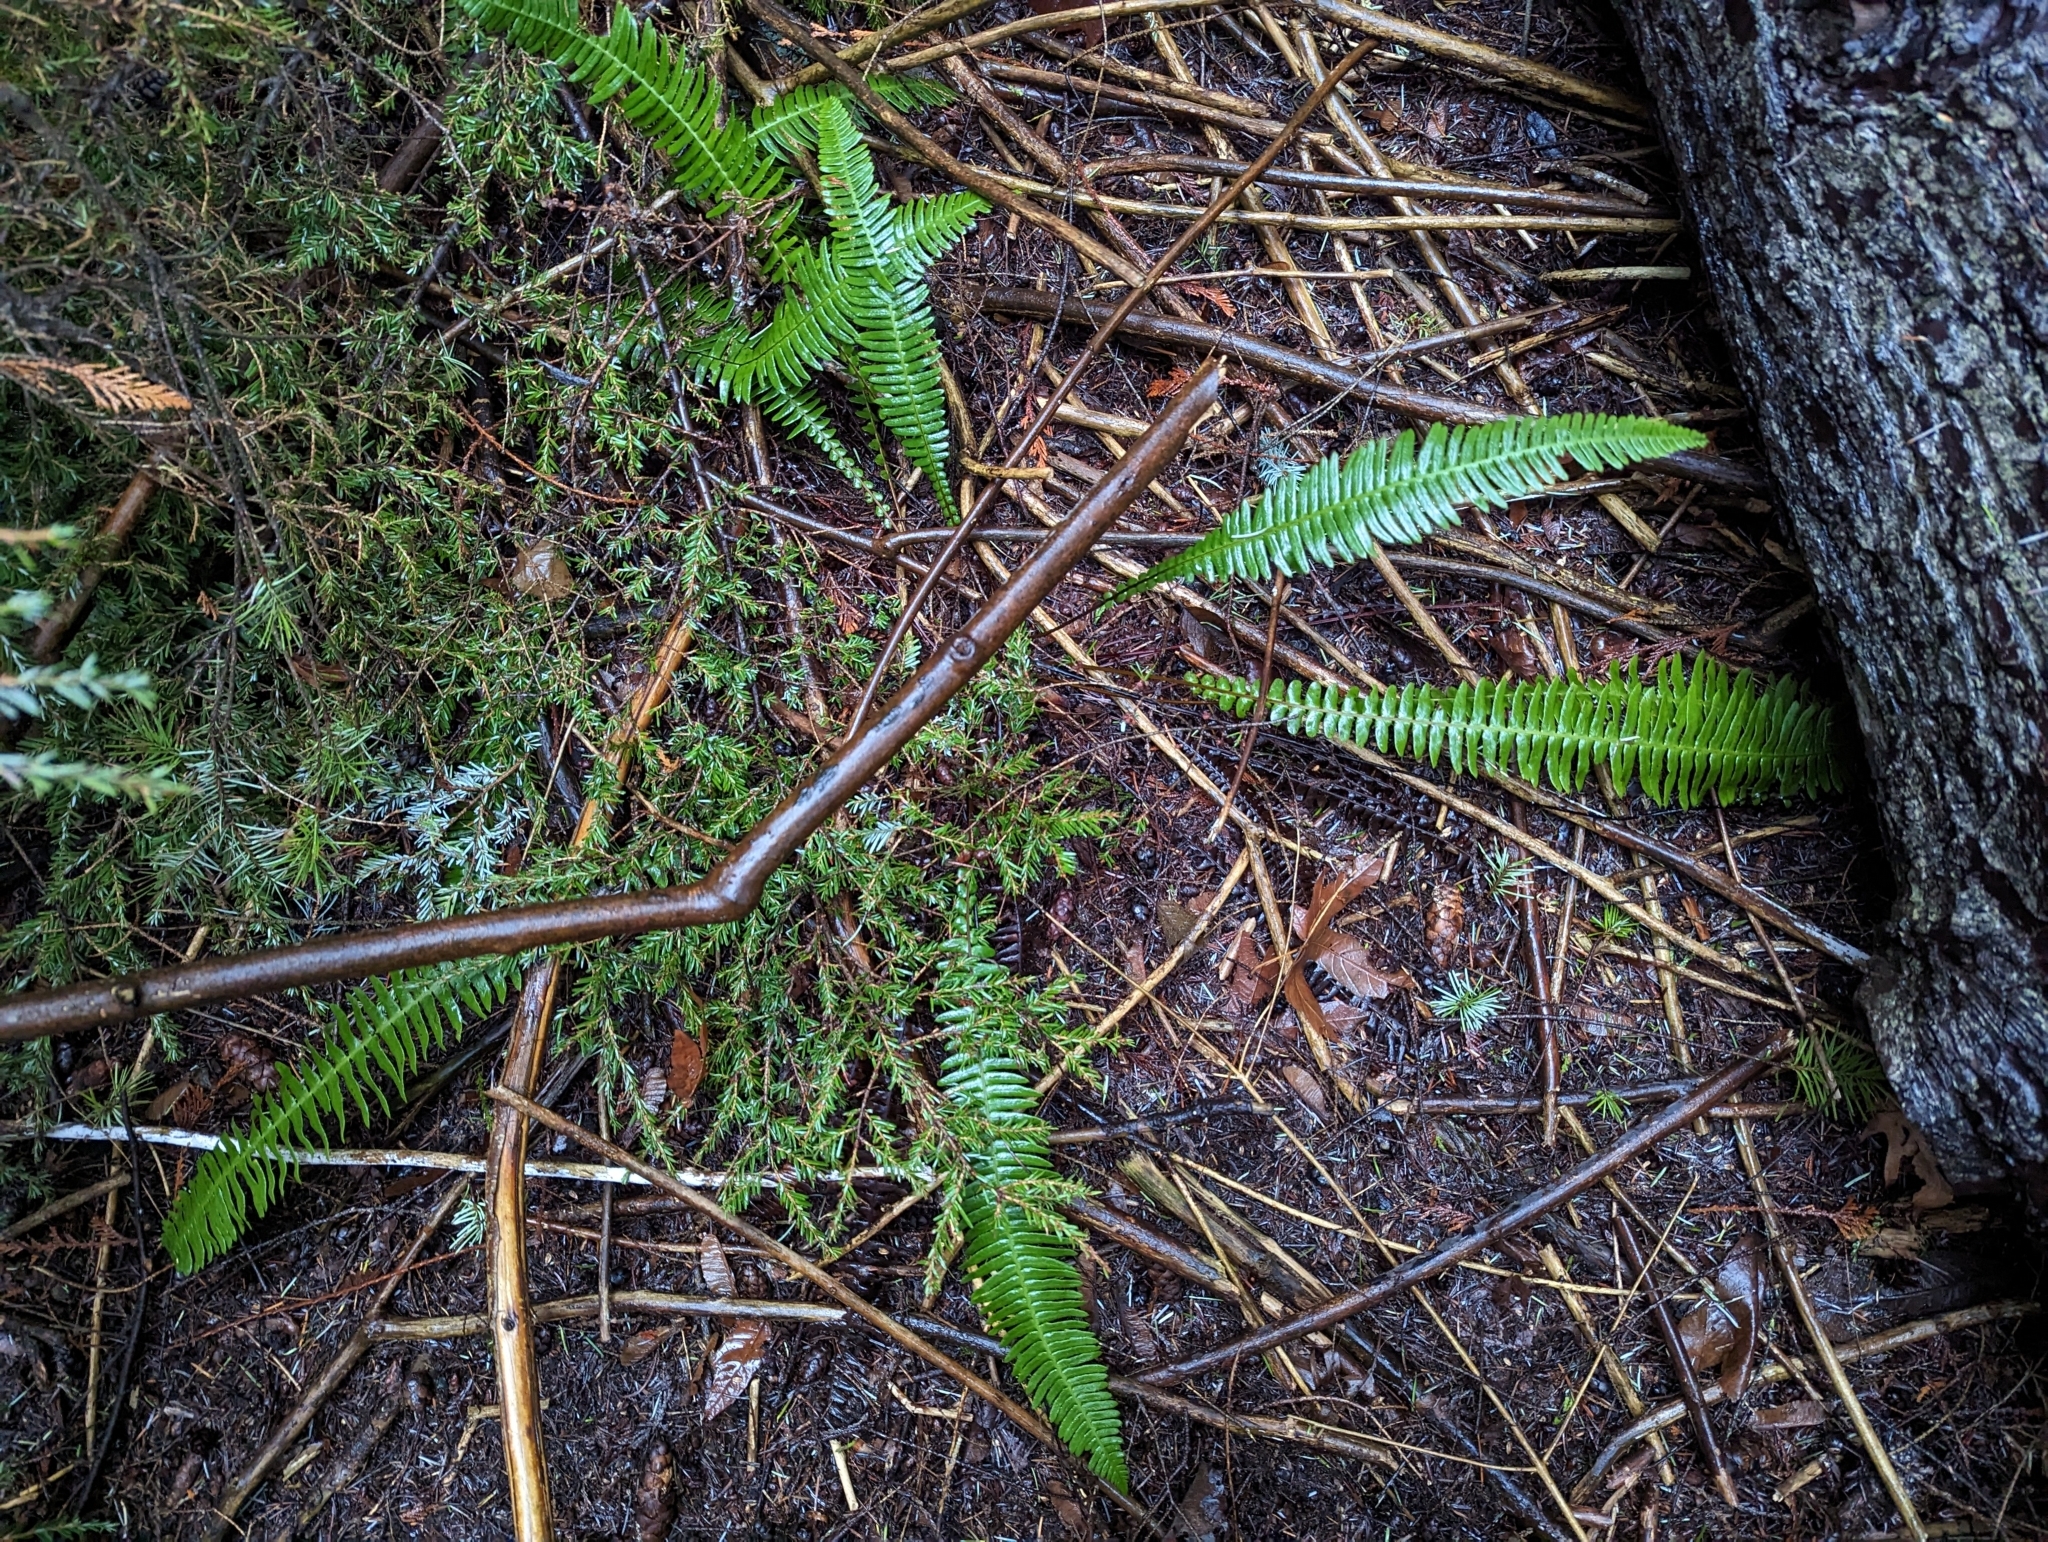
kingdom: Plantae
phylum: Tracheophyta
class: Polypodiopsida
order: Polypodiales
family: Blechnaceae
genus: Struthiopteris
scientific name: Struthiopteris spicant
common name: Deer fern
